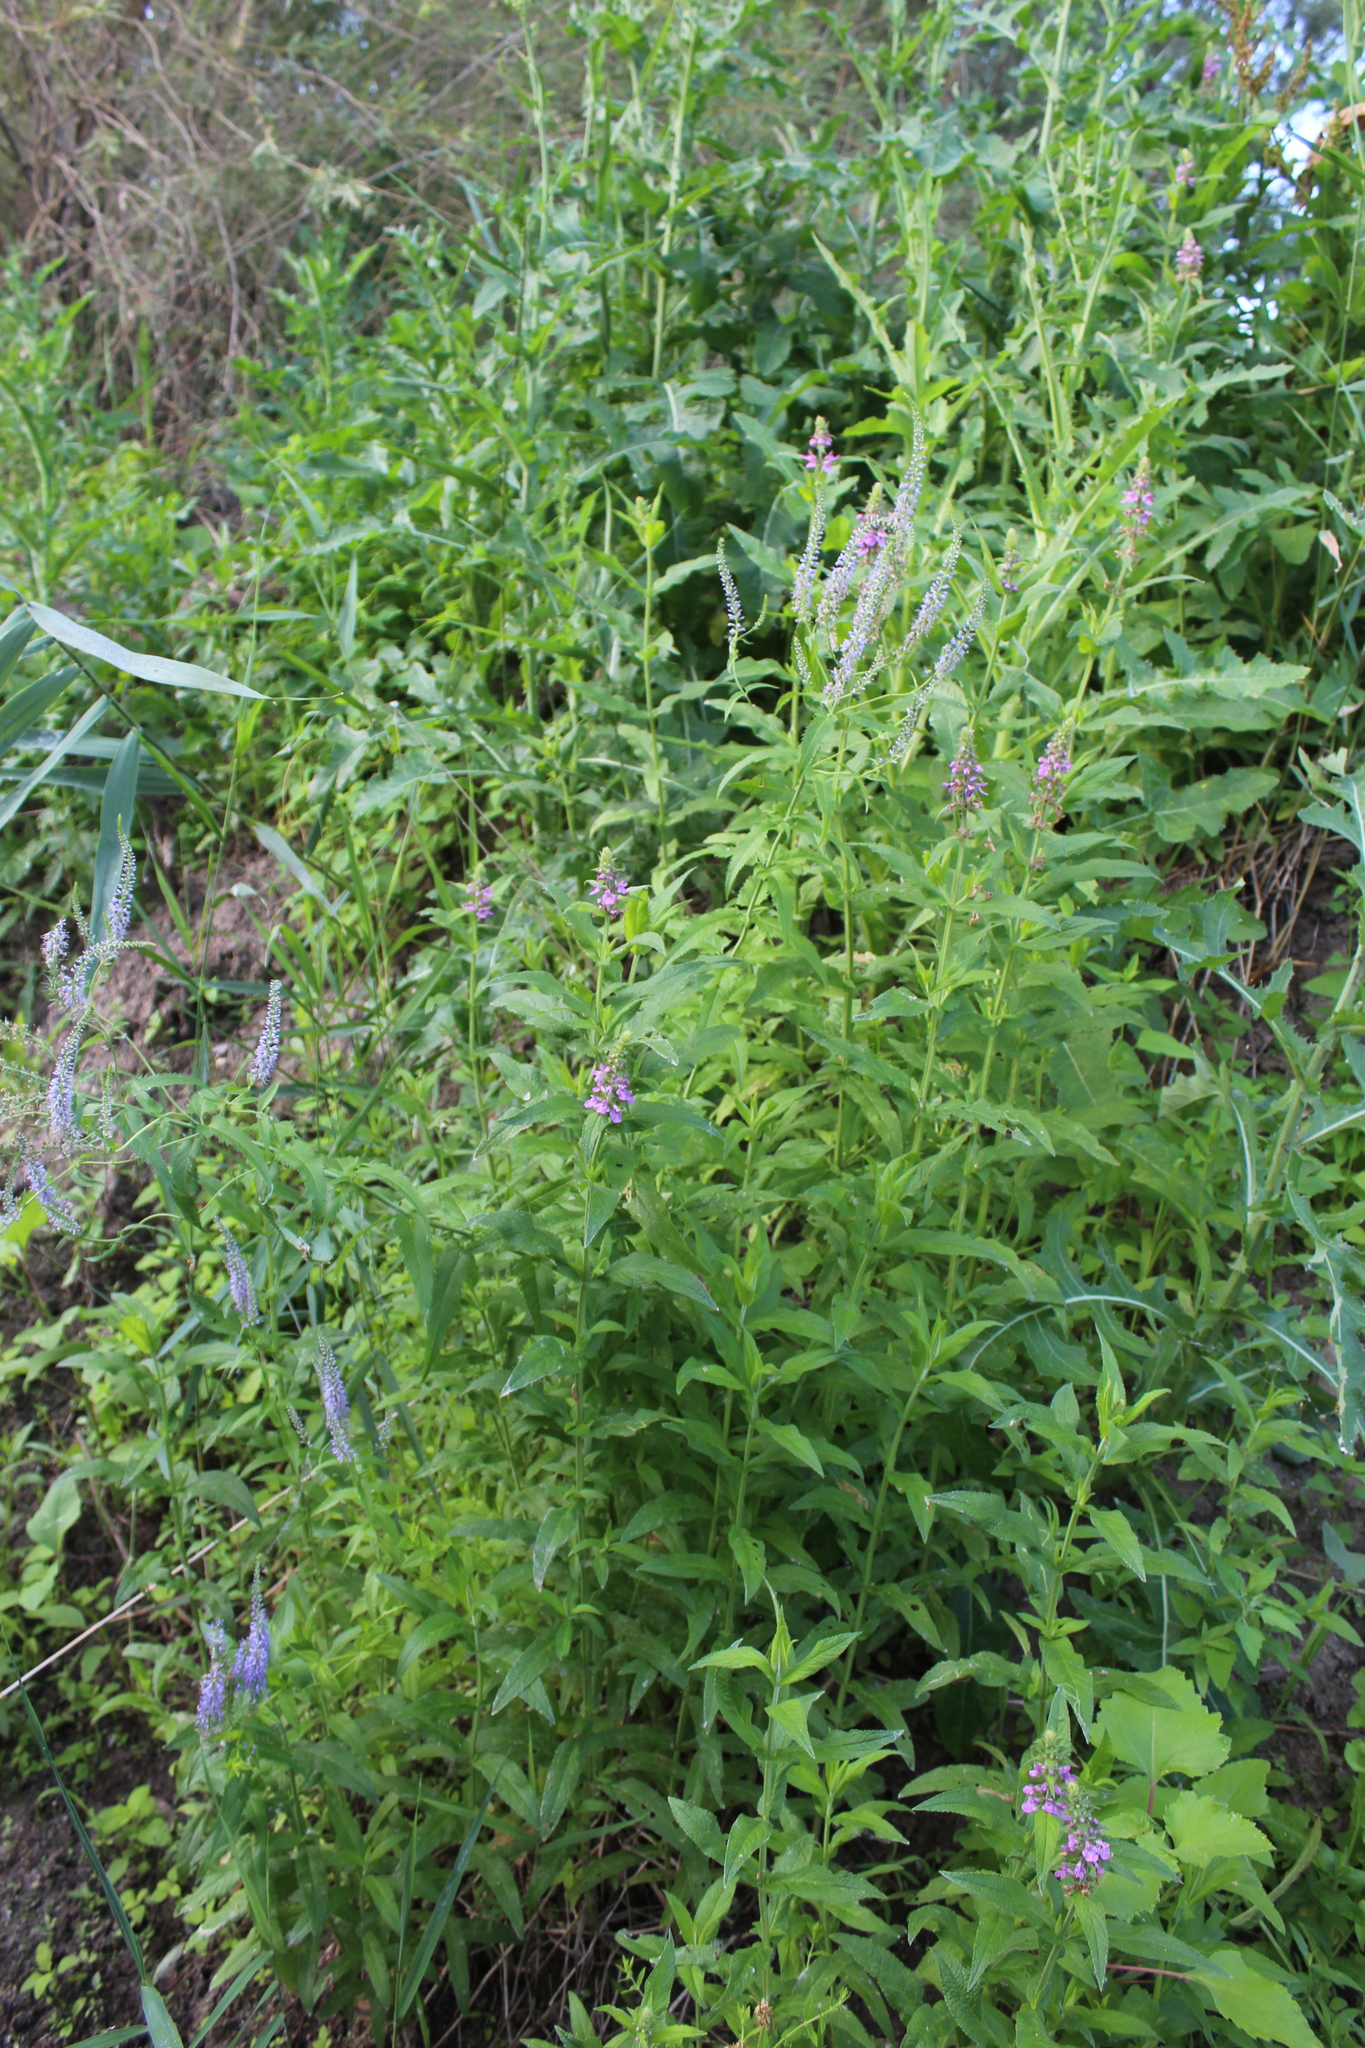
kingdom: Plantae
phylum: Tracheophyta
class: Magnoliopsida
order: Lamiales
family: Lamiaceae
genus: Stachys
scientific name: Stachys palustris
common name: Marsh woundwort
